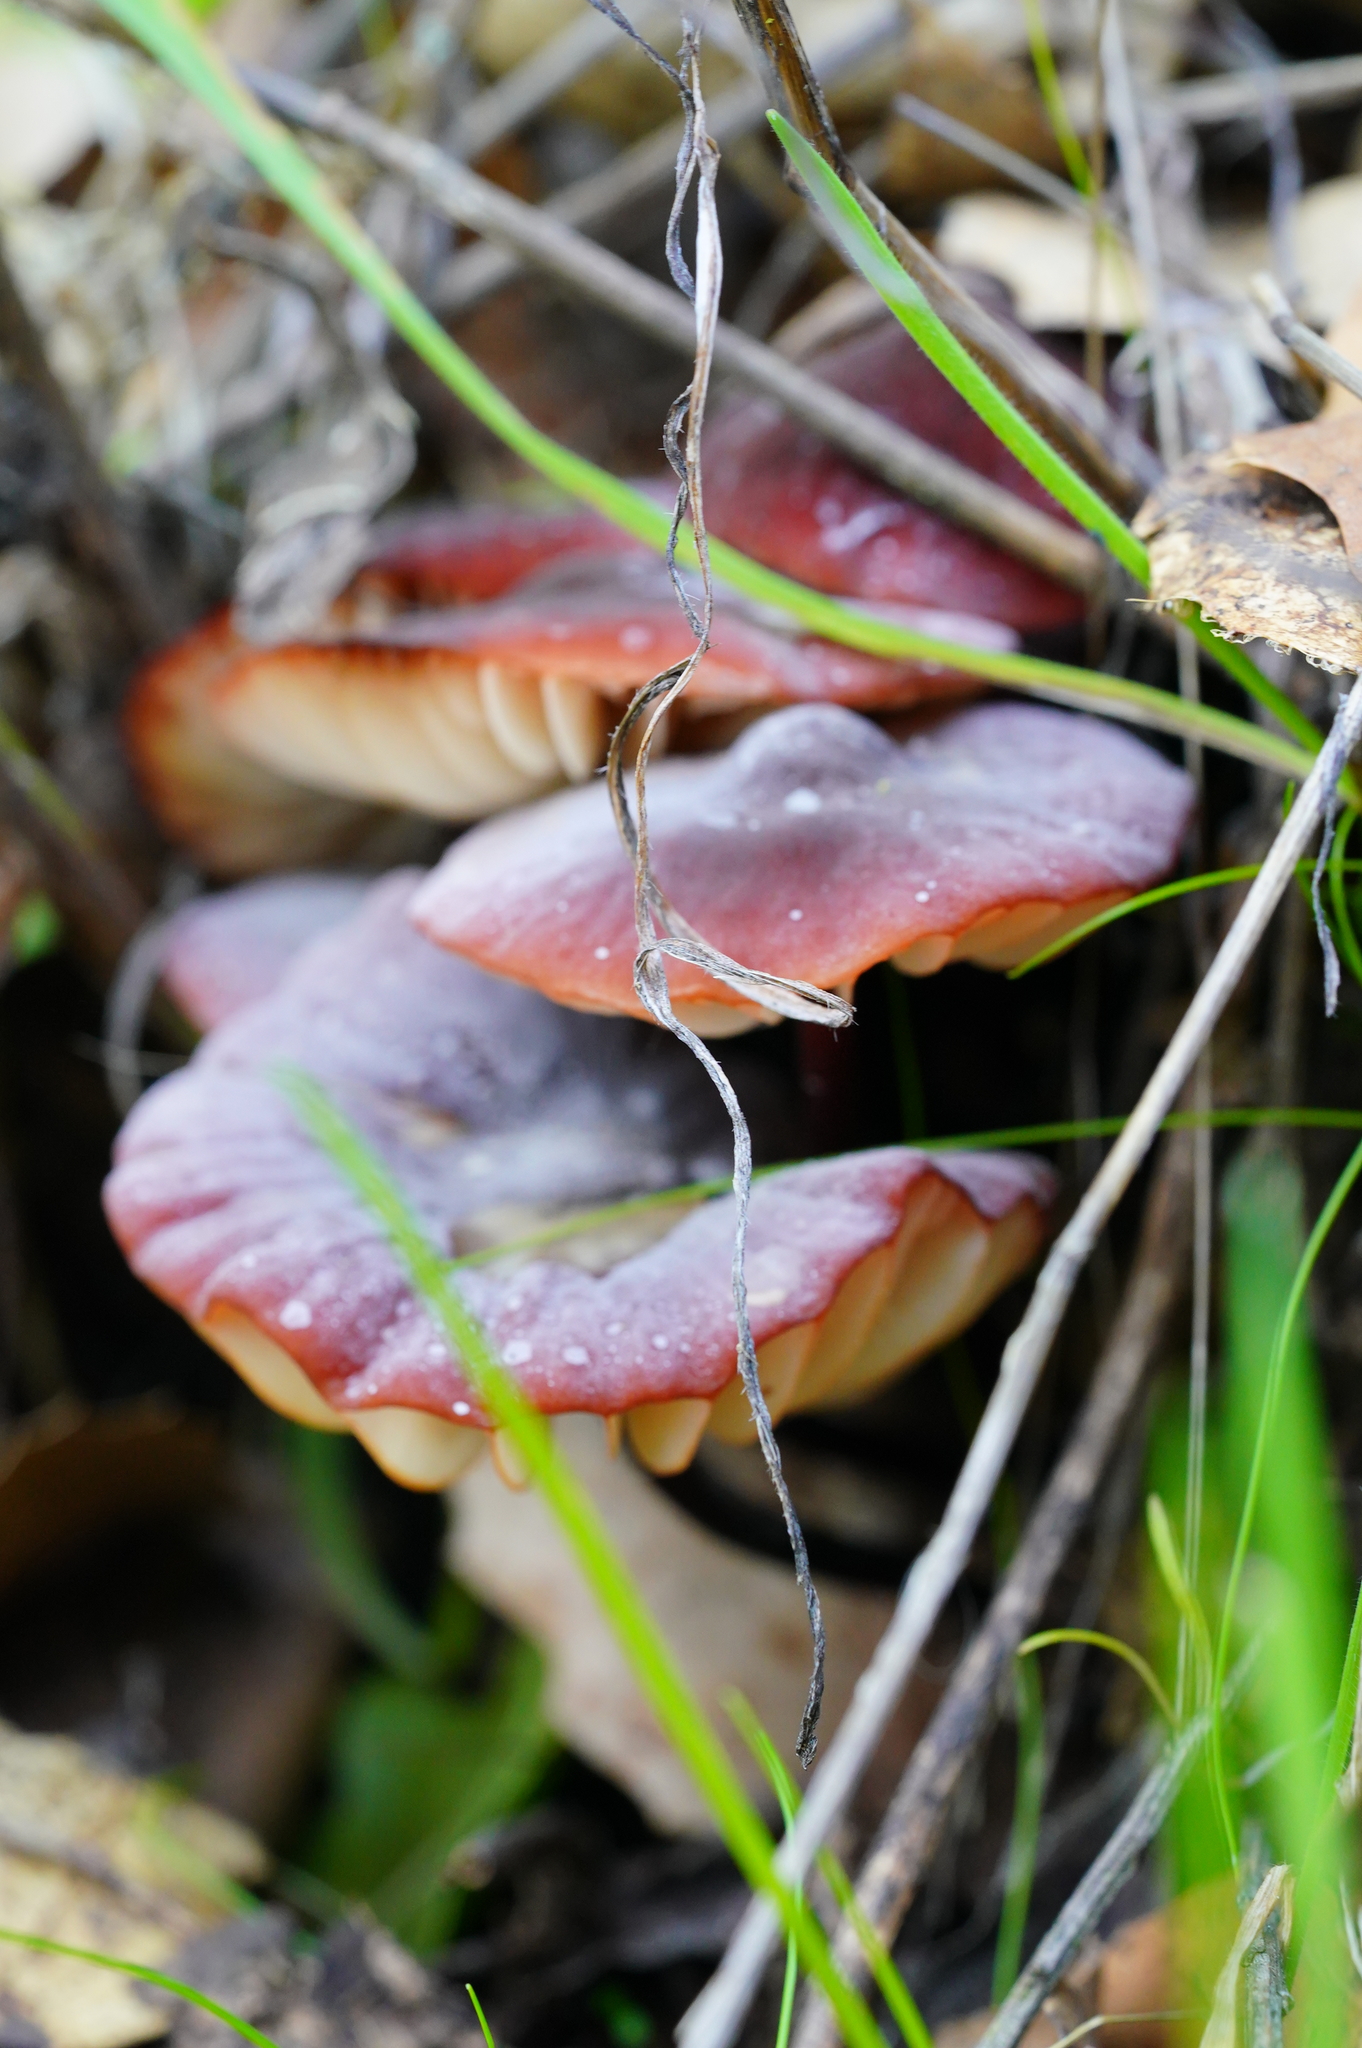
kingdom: Fungi
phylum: Basidiomycota
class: Agaricomycetes
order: Agaricales
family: Marasmiaceae
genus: Marasmius
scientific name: Marasmius plicatulus
